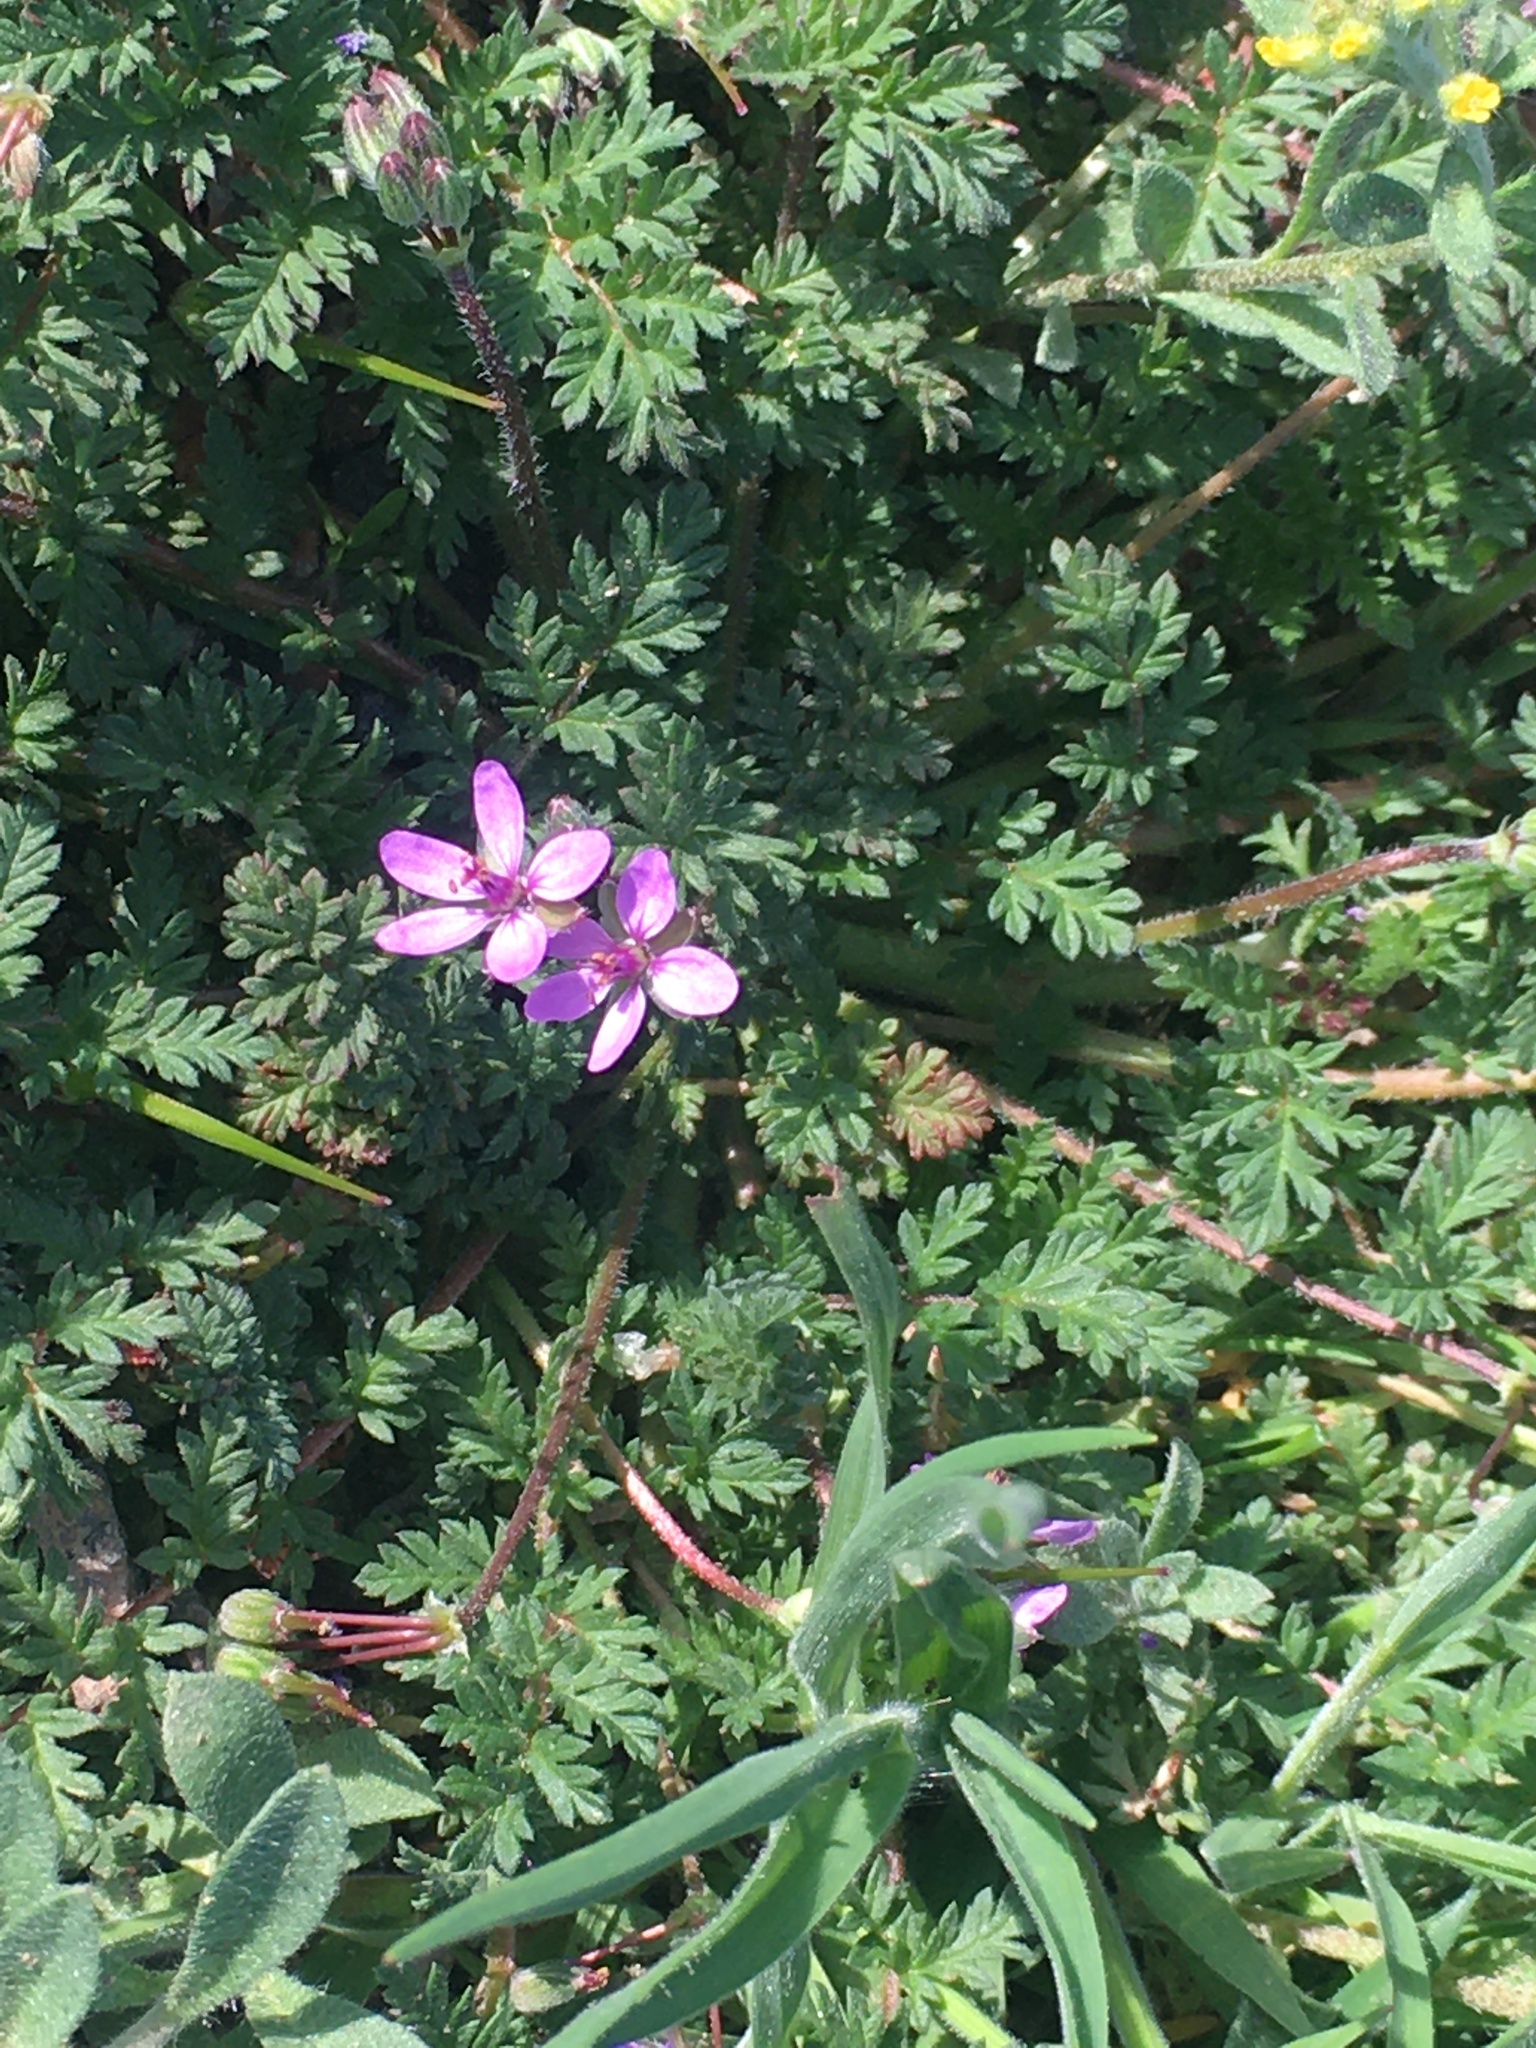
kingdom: Plantae
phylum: Tracheophyta
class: Magnoliopsida
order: Geraniales
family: Geraniaceae
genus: Erodium
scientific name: Erodium cicutarium
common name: Common stork's-bill
